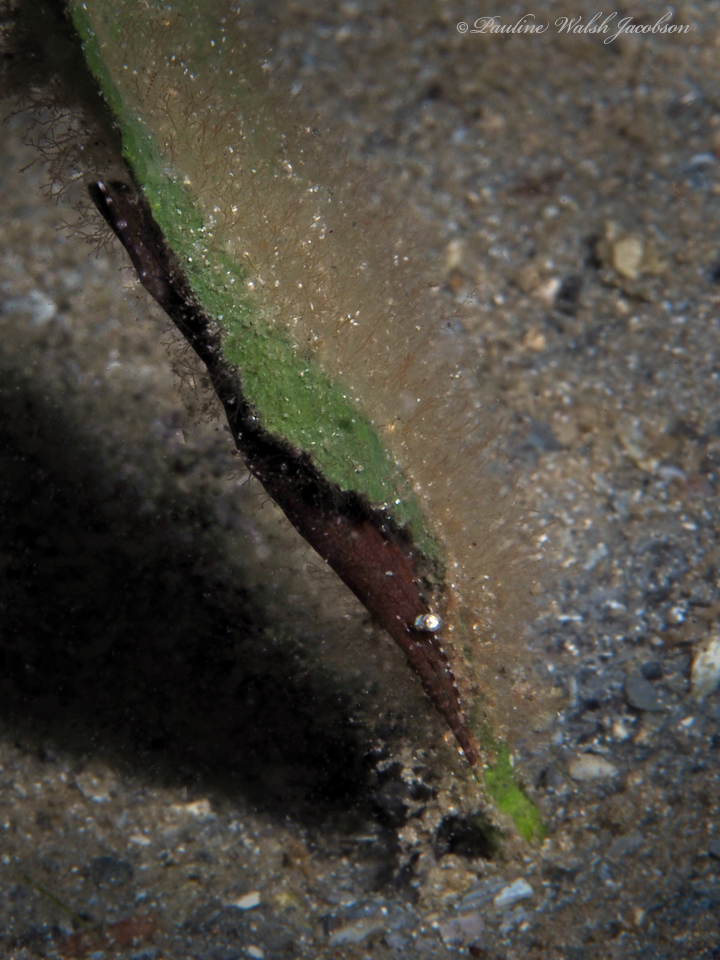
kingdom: Animalia
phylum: Arthropoda
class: Malacostraca
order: Decapoda
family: Hippolytidae
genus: Tozeuma
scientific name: Tozeuma carolinense
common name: Arrow shrimp
